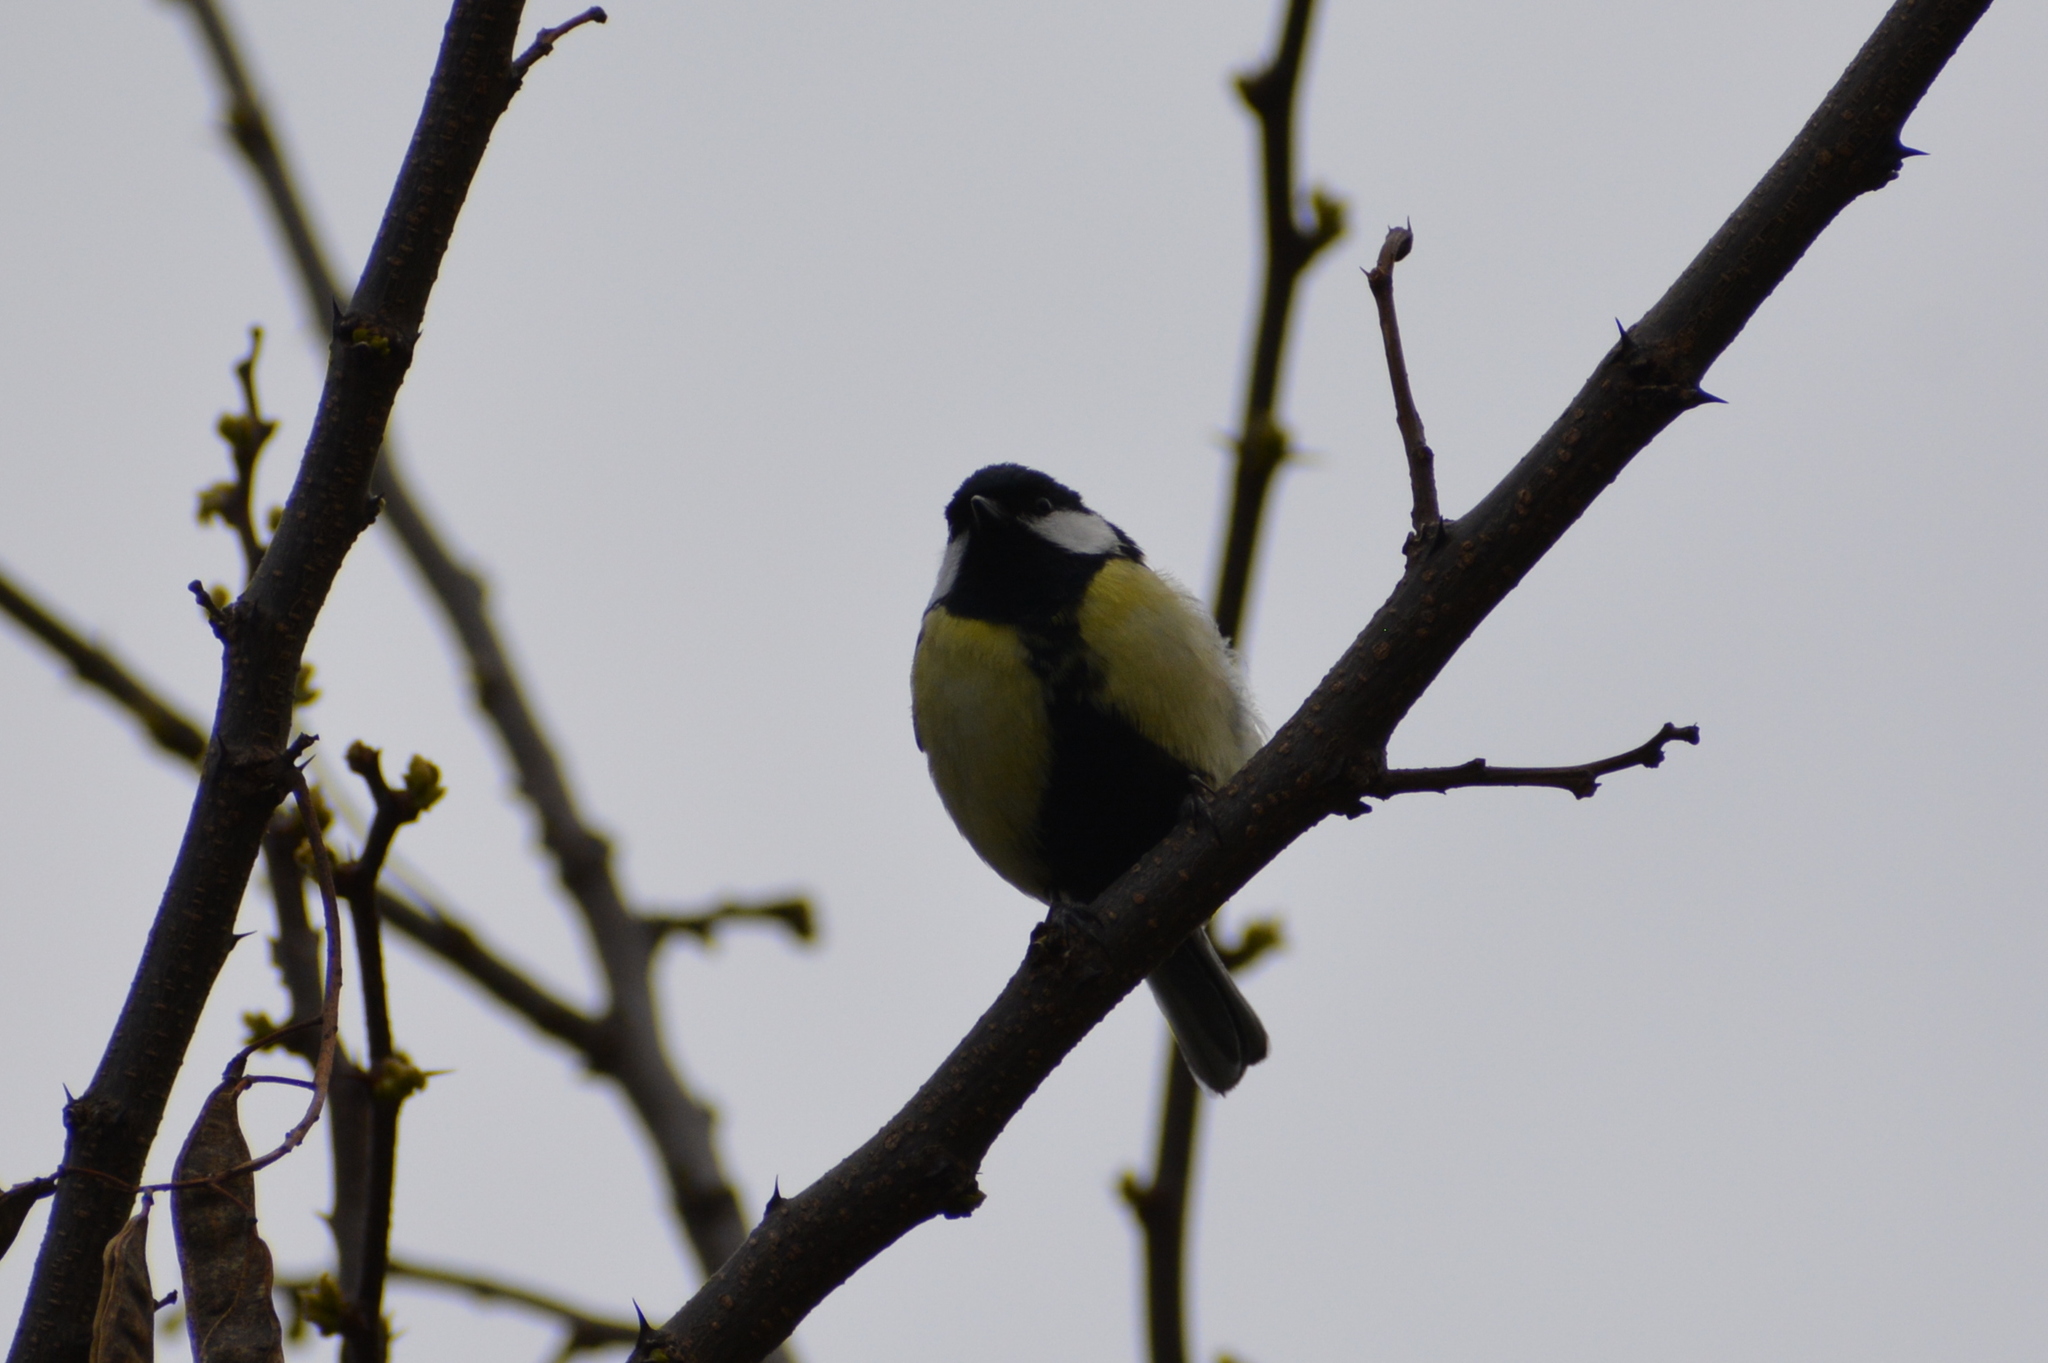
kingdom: Animalia
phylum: Chordata
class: Aves
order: Passeriformes
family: Paridae
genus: Parus
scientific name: Parus major
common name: Great tit
